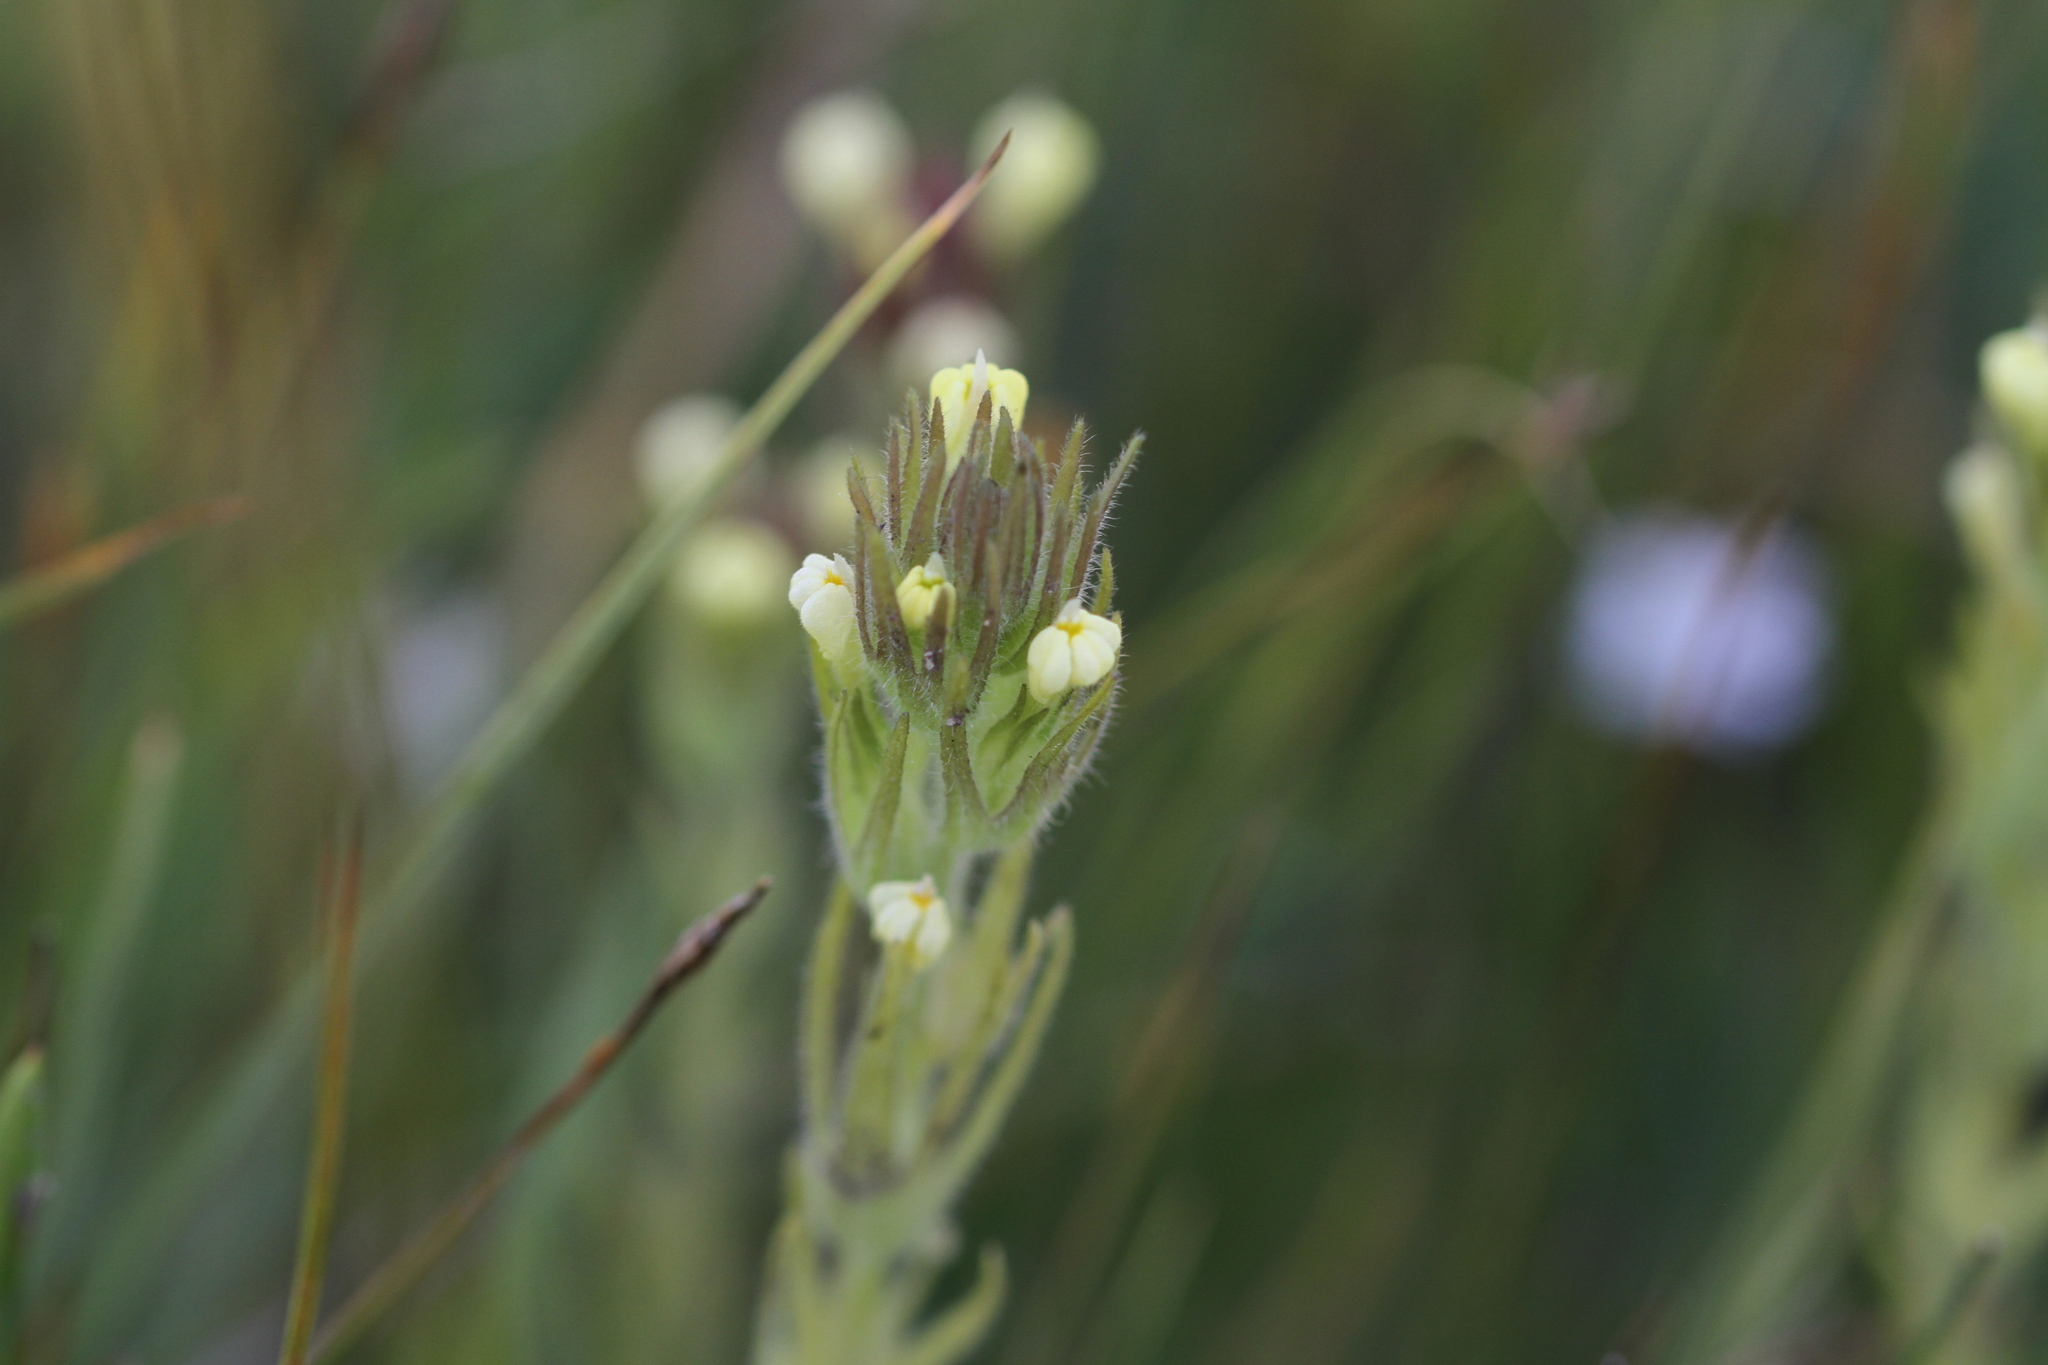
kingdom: Plantae
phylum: Tracheophyta
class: Magnoliopsida
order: Lamiales
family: Orobanchaceae
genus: Castilleja
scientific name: Castilleja tenuis
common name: Hairy indian paintbrush
